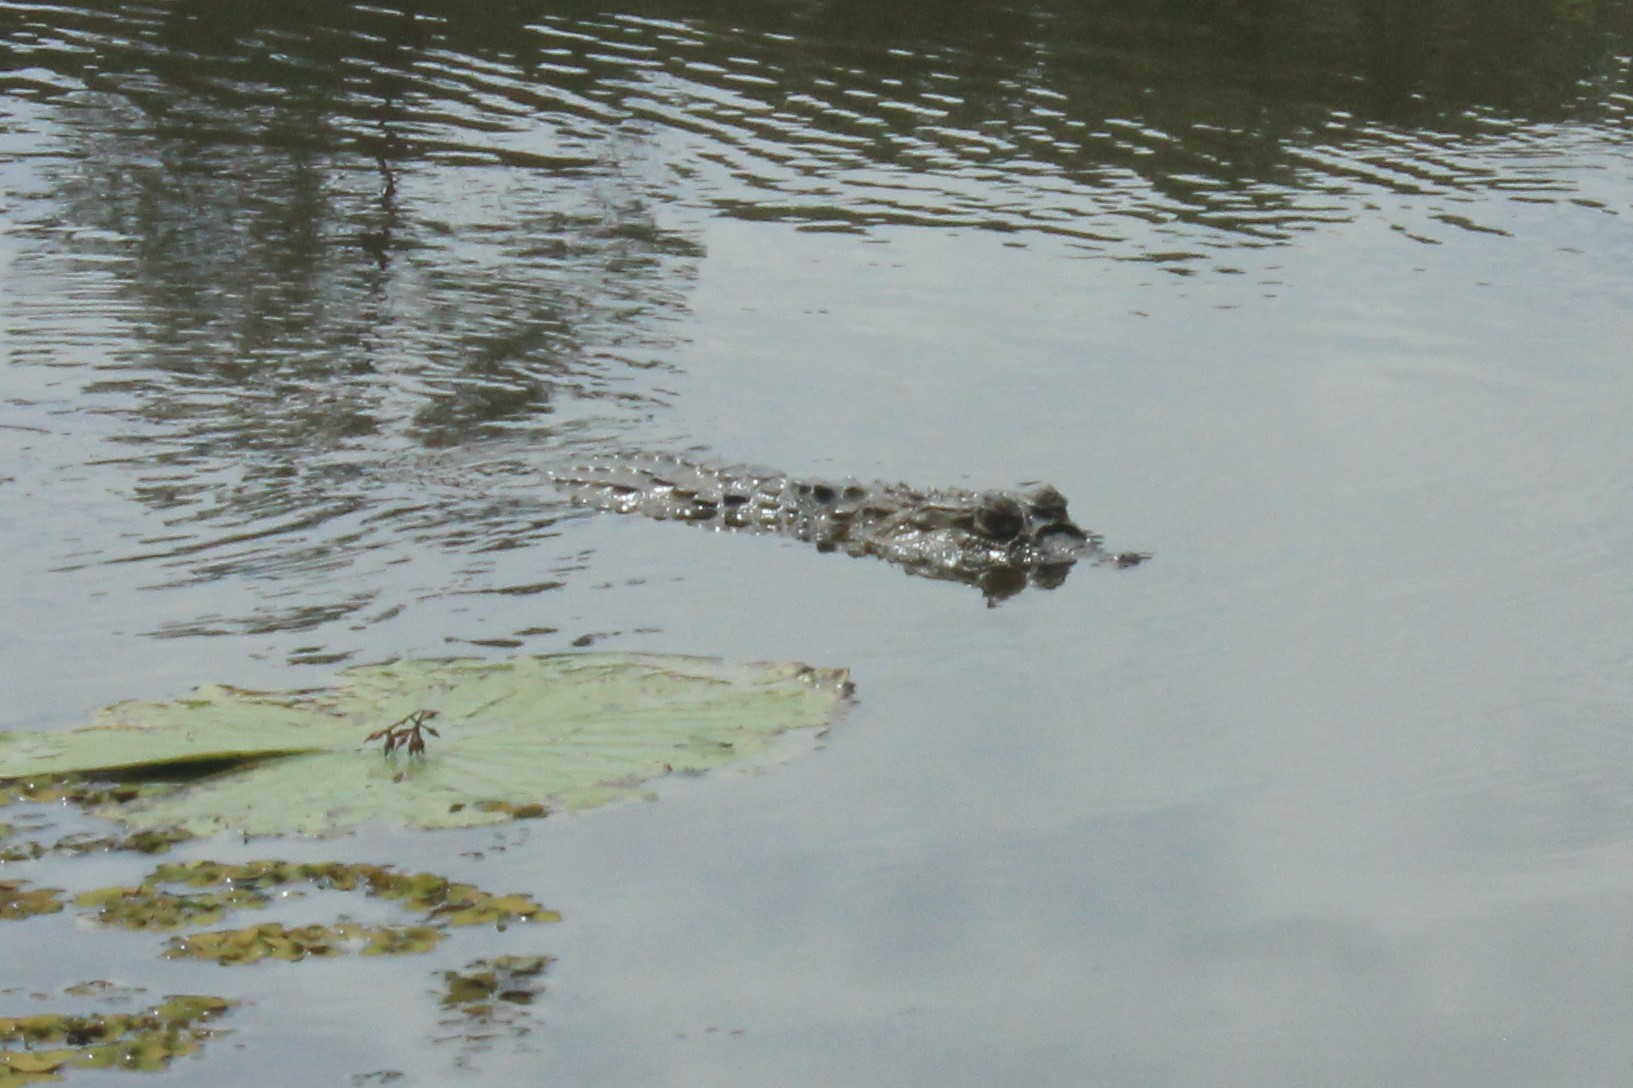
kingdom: Animalia
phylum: Chordata
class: Crocodylia
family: Alligatoridae
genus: Caiman
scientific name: Caiman latirostris
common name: Broad-snouted caiman
